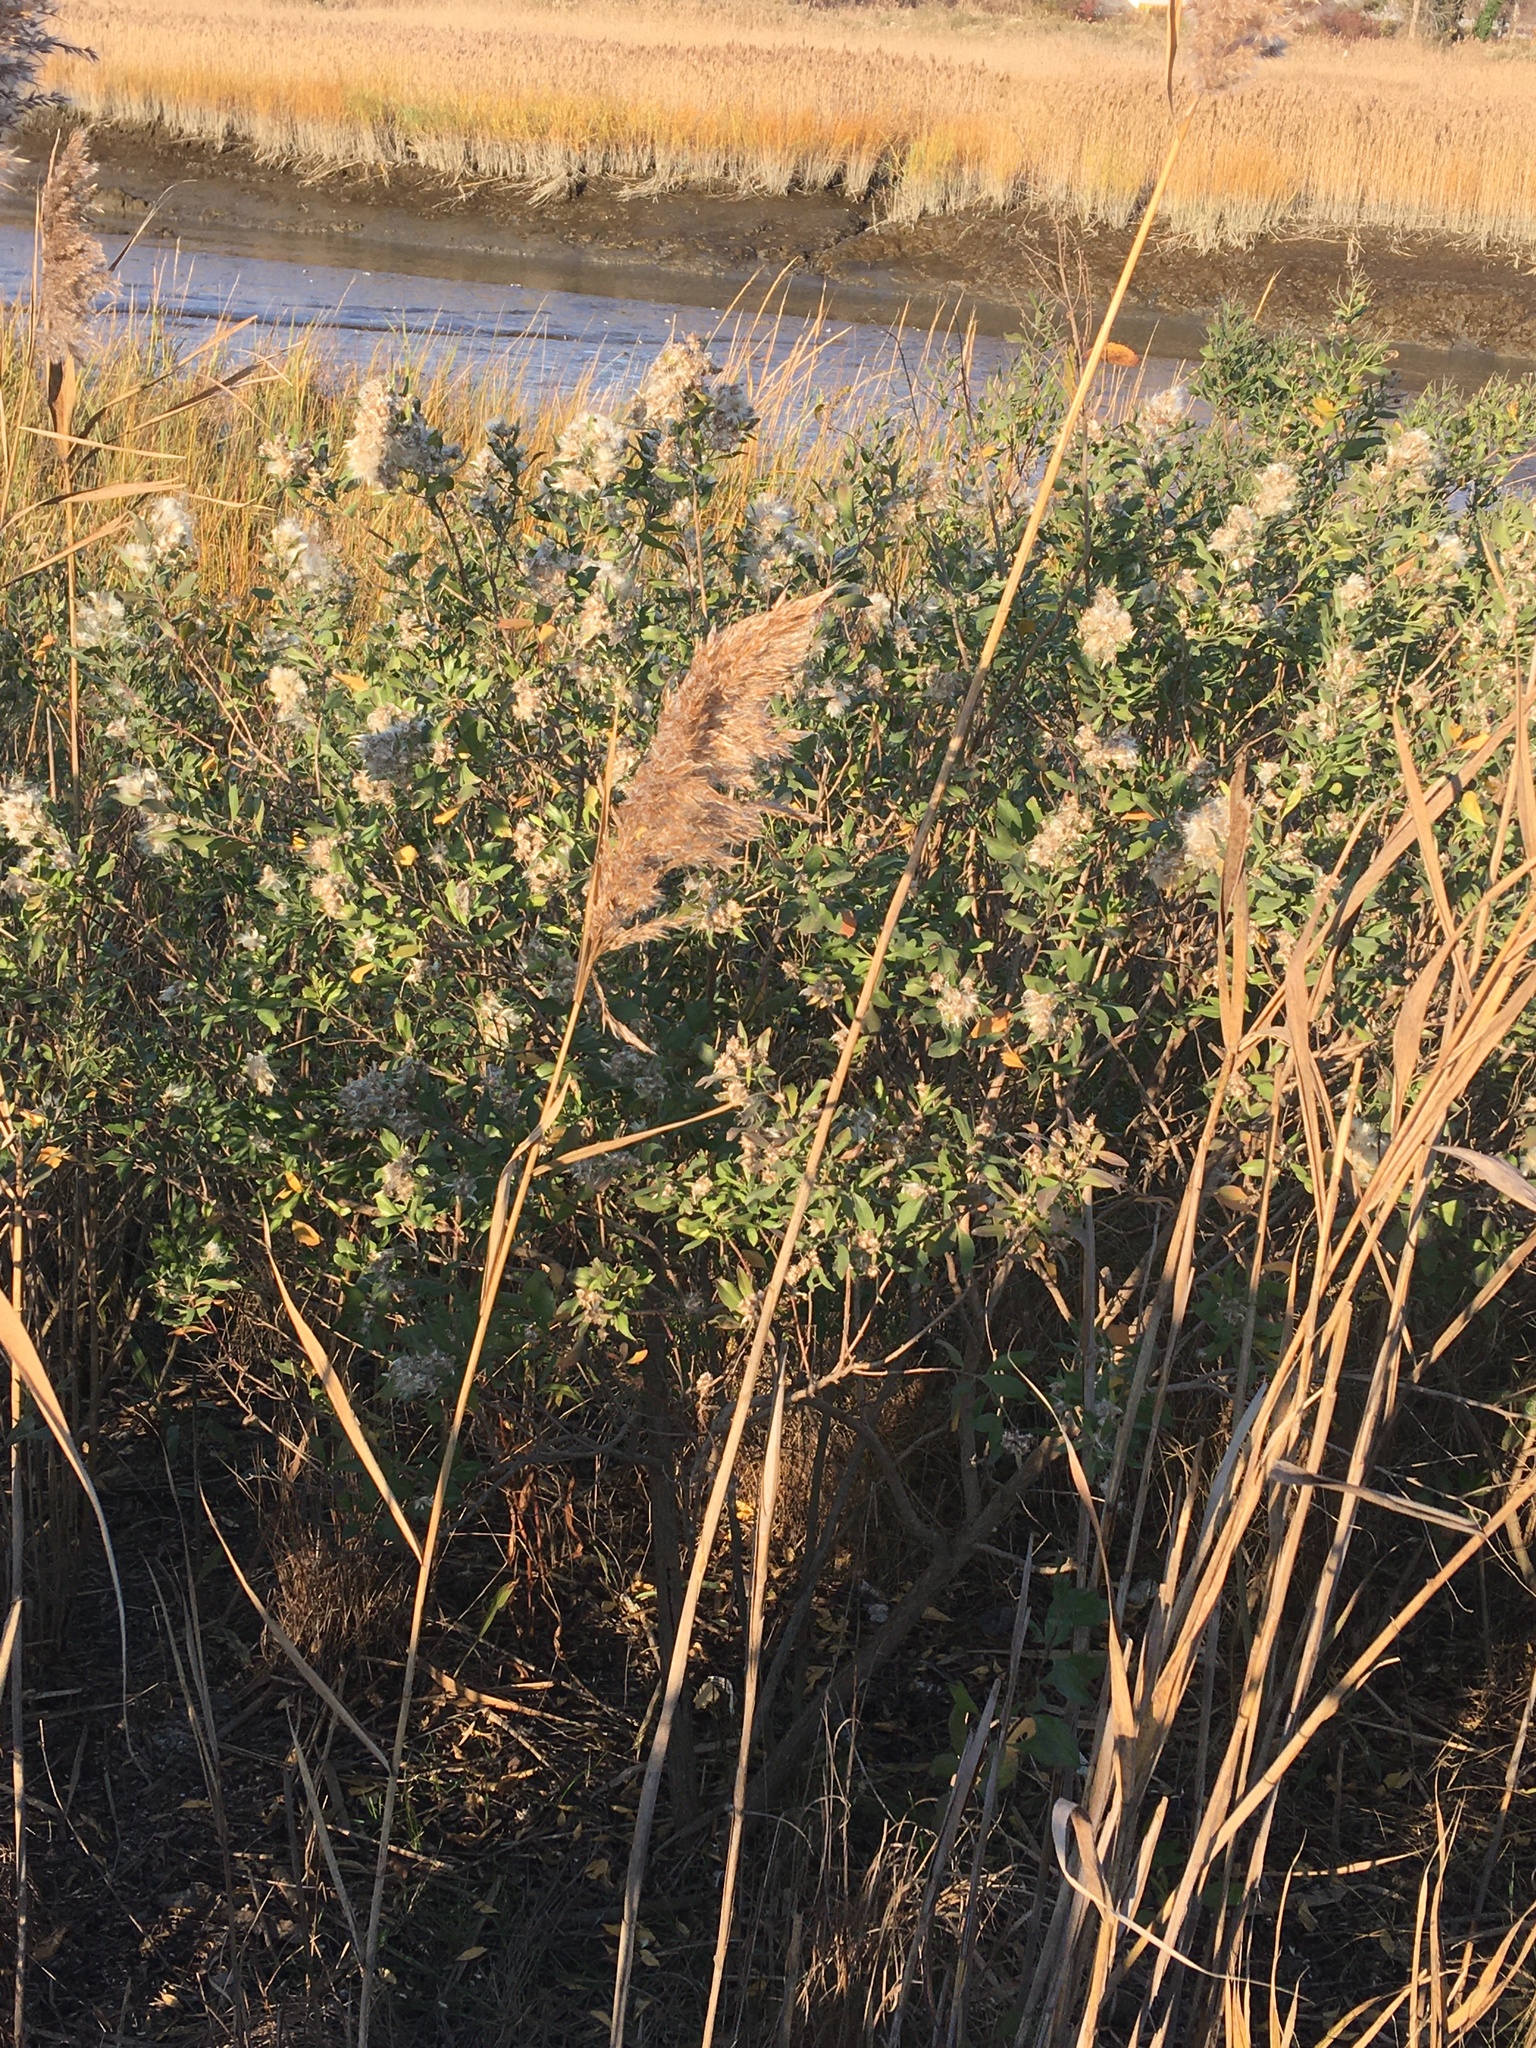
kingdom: Plantae
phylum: Tracheophyta
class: Magnoliopsida
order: Asterales
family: Asteraceae
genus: Baccharis
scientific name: Baccharis halimifolia
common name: Eastern baccharis
